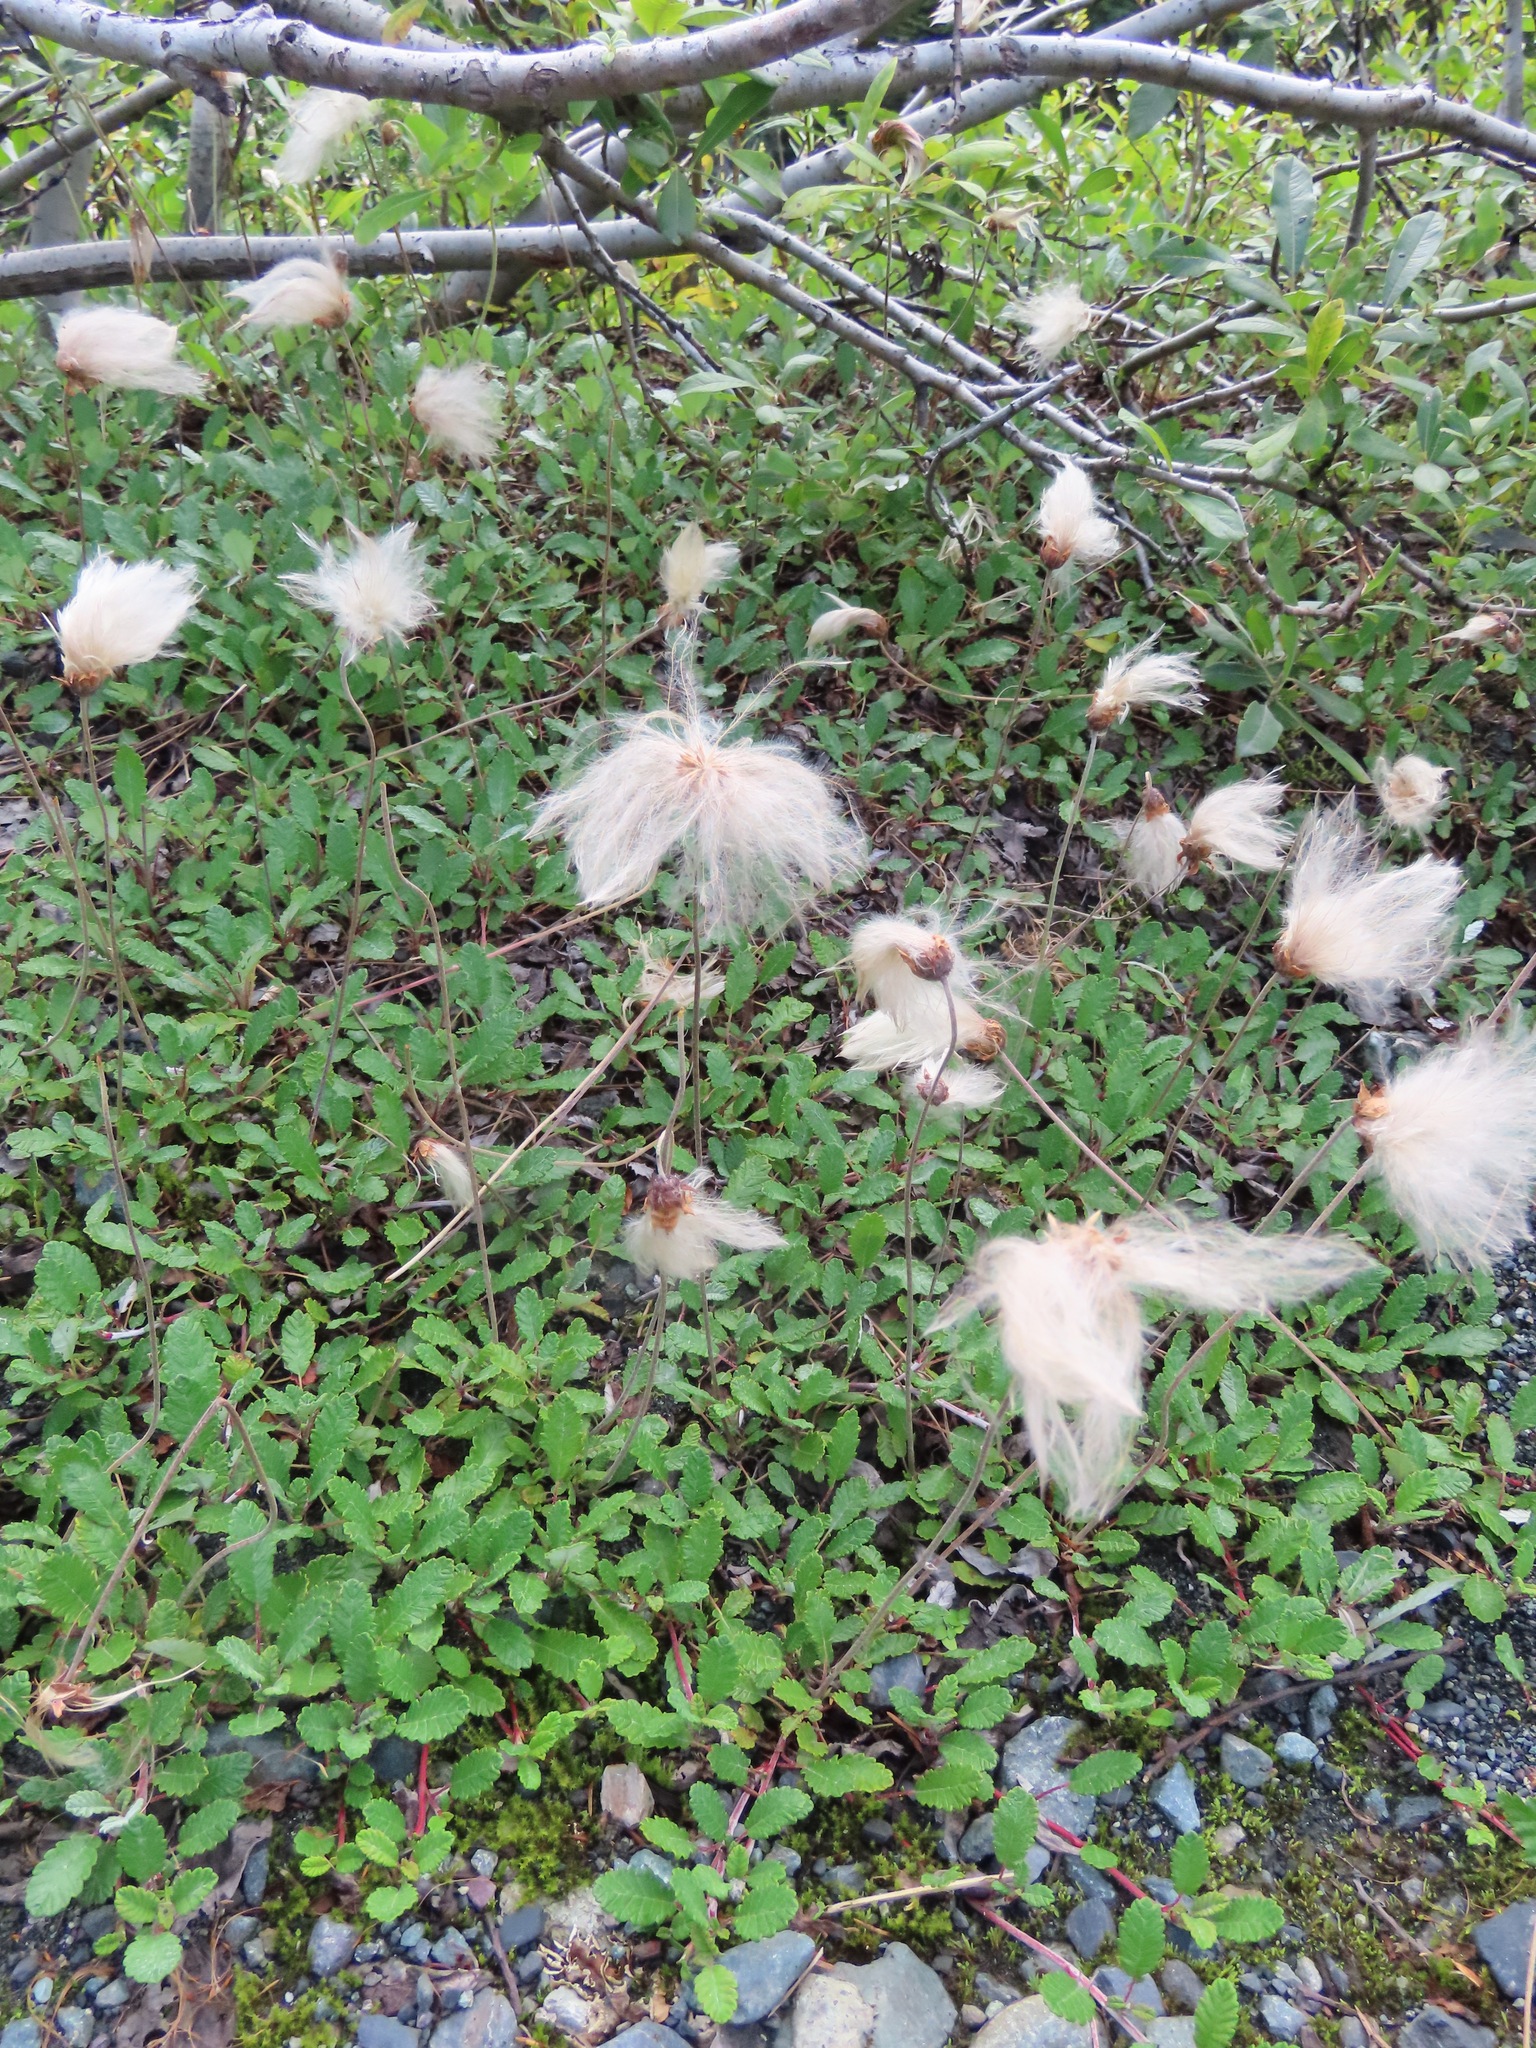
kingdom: Plantae
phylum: Tracheophyta
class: Magnoliopsida
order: Rosales
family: Rosaceae
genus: Dryas
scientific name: Dryas drummondii
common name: Drummond's dryad
